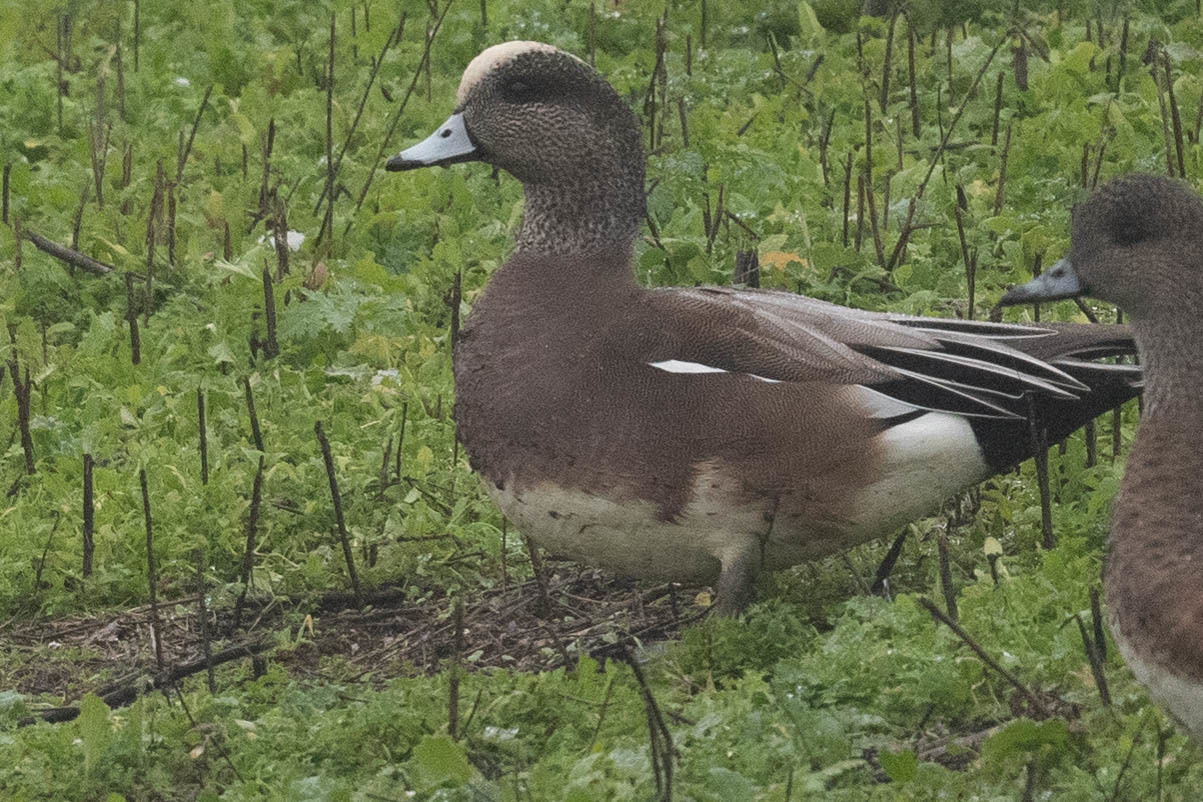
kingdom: Animalia
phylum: Chordata
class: Aves
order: Anseriformes
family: Anatidae
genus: Mareca
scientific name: Mareca americana
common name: American wigeon
